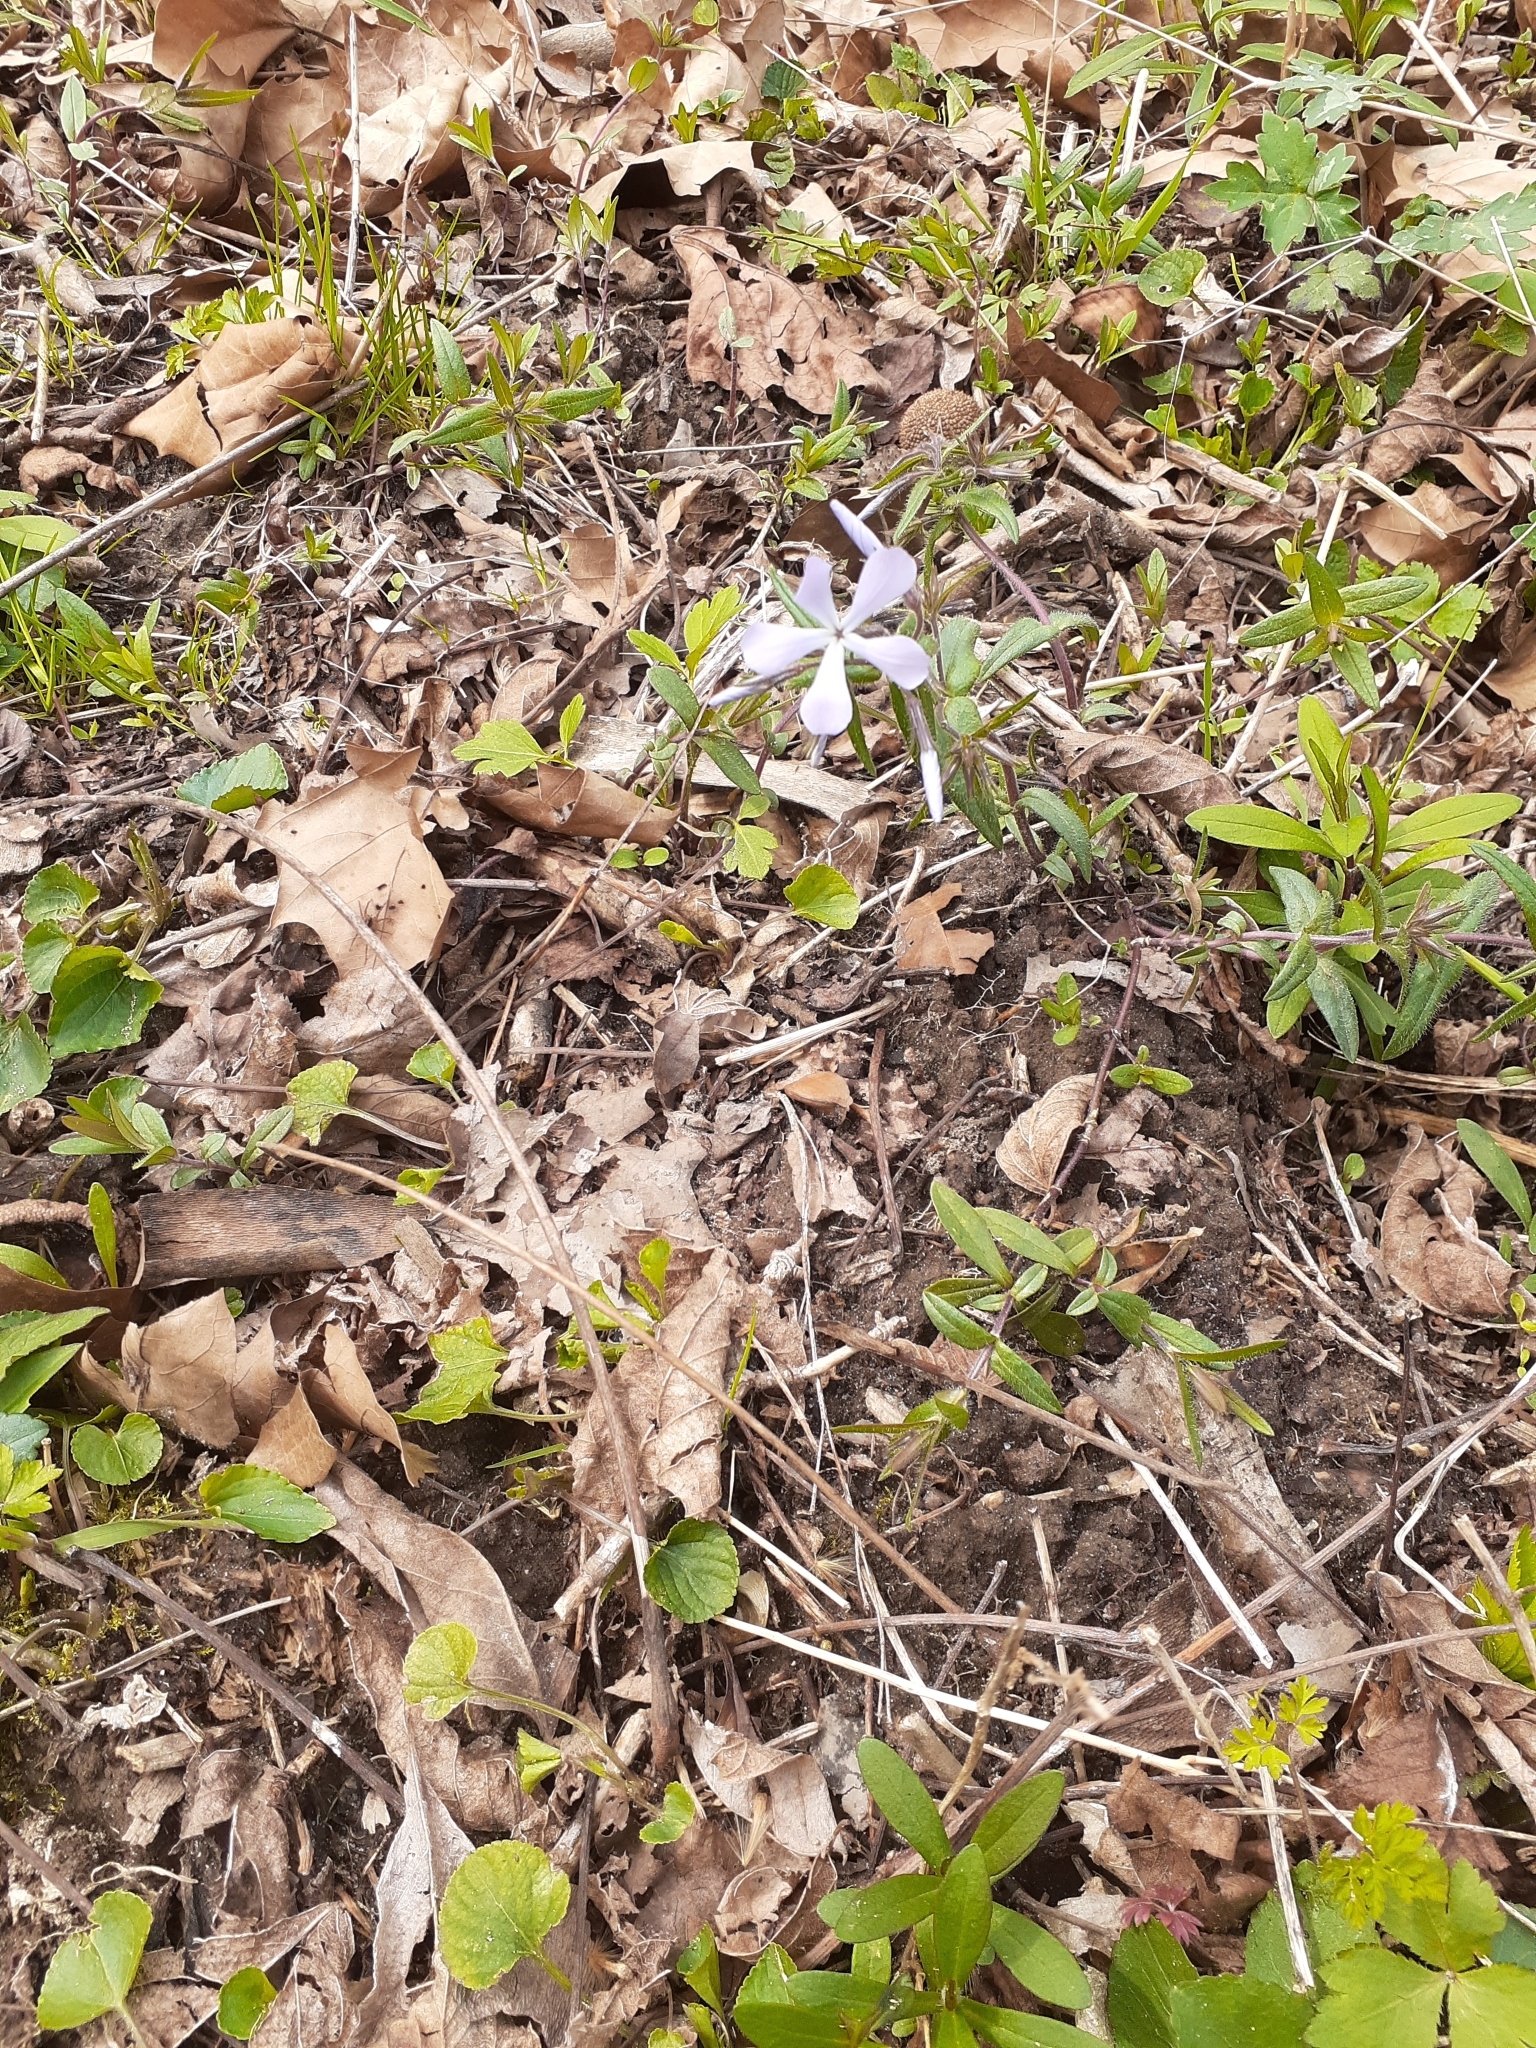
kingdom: Plantae
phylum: Tracheophyta
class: Magnoliopsida
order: Ericales
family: Polemoniaceae
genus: Phlox
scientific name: Phlox divaricata
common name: Blue phlox
